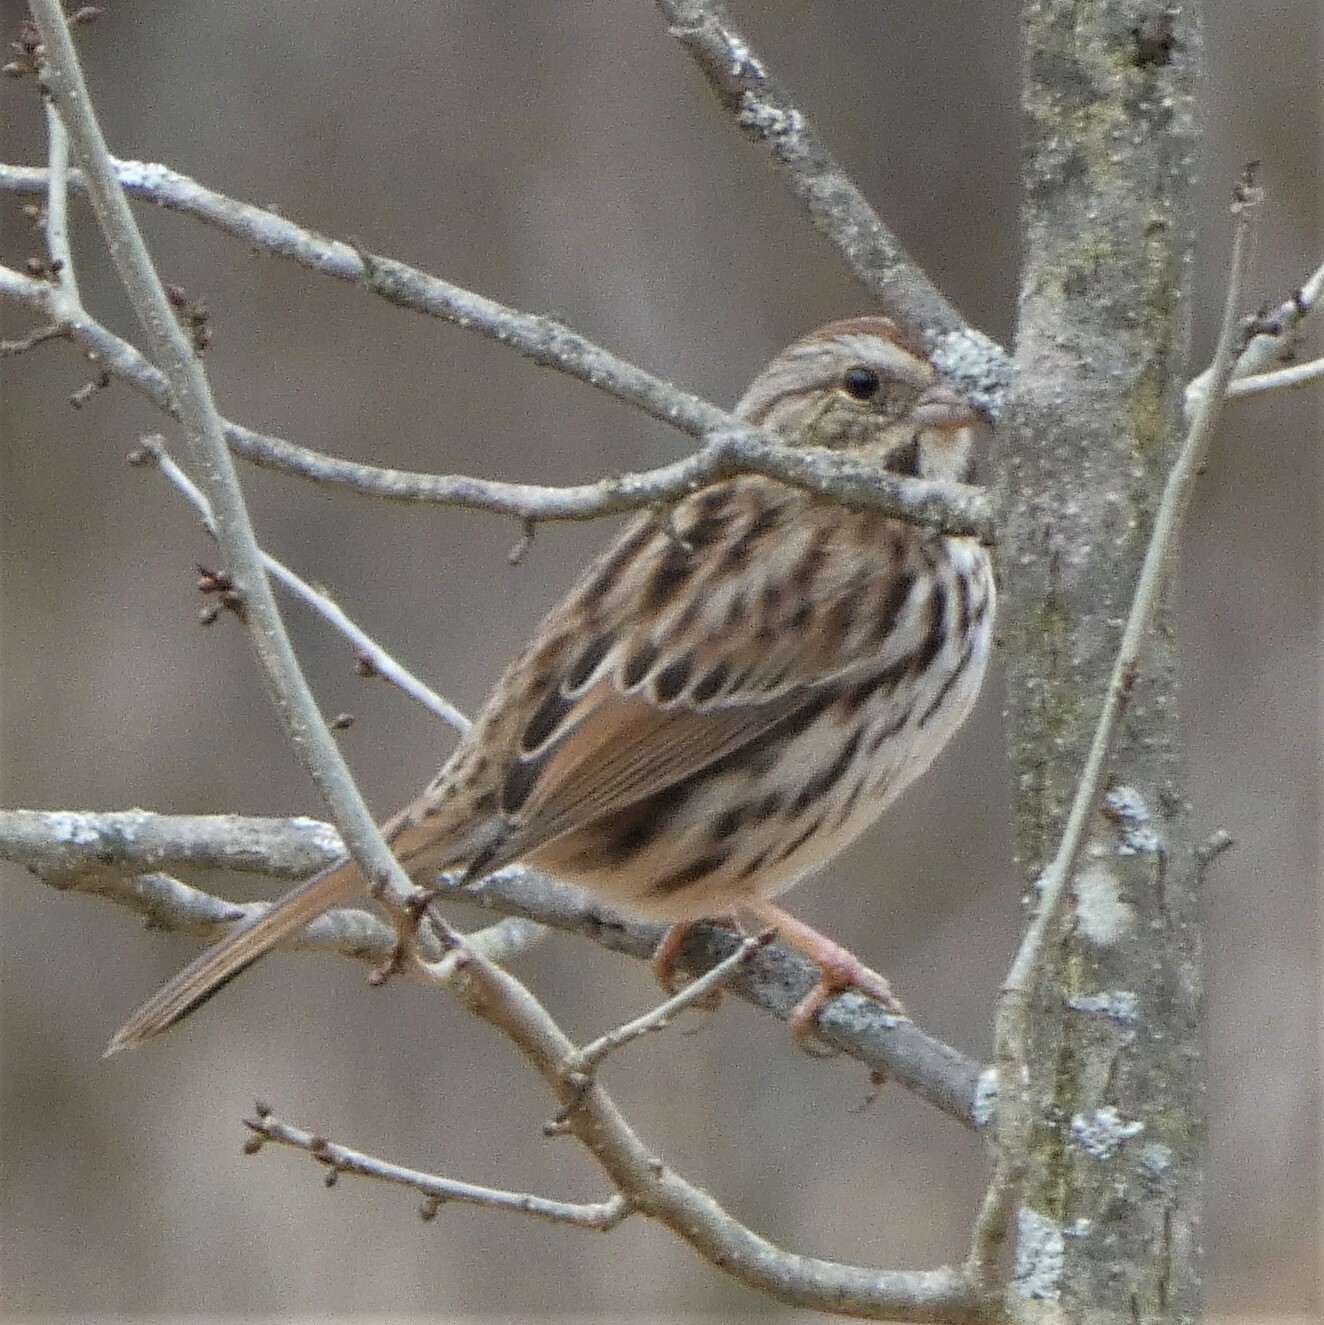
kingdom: Animalia
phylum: Chordata
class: Aves
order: Passeriformes
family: Passerellidae
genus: Melospiza
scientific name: Melospiza melodia
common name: Song sparrow
